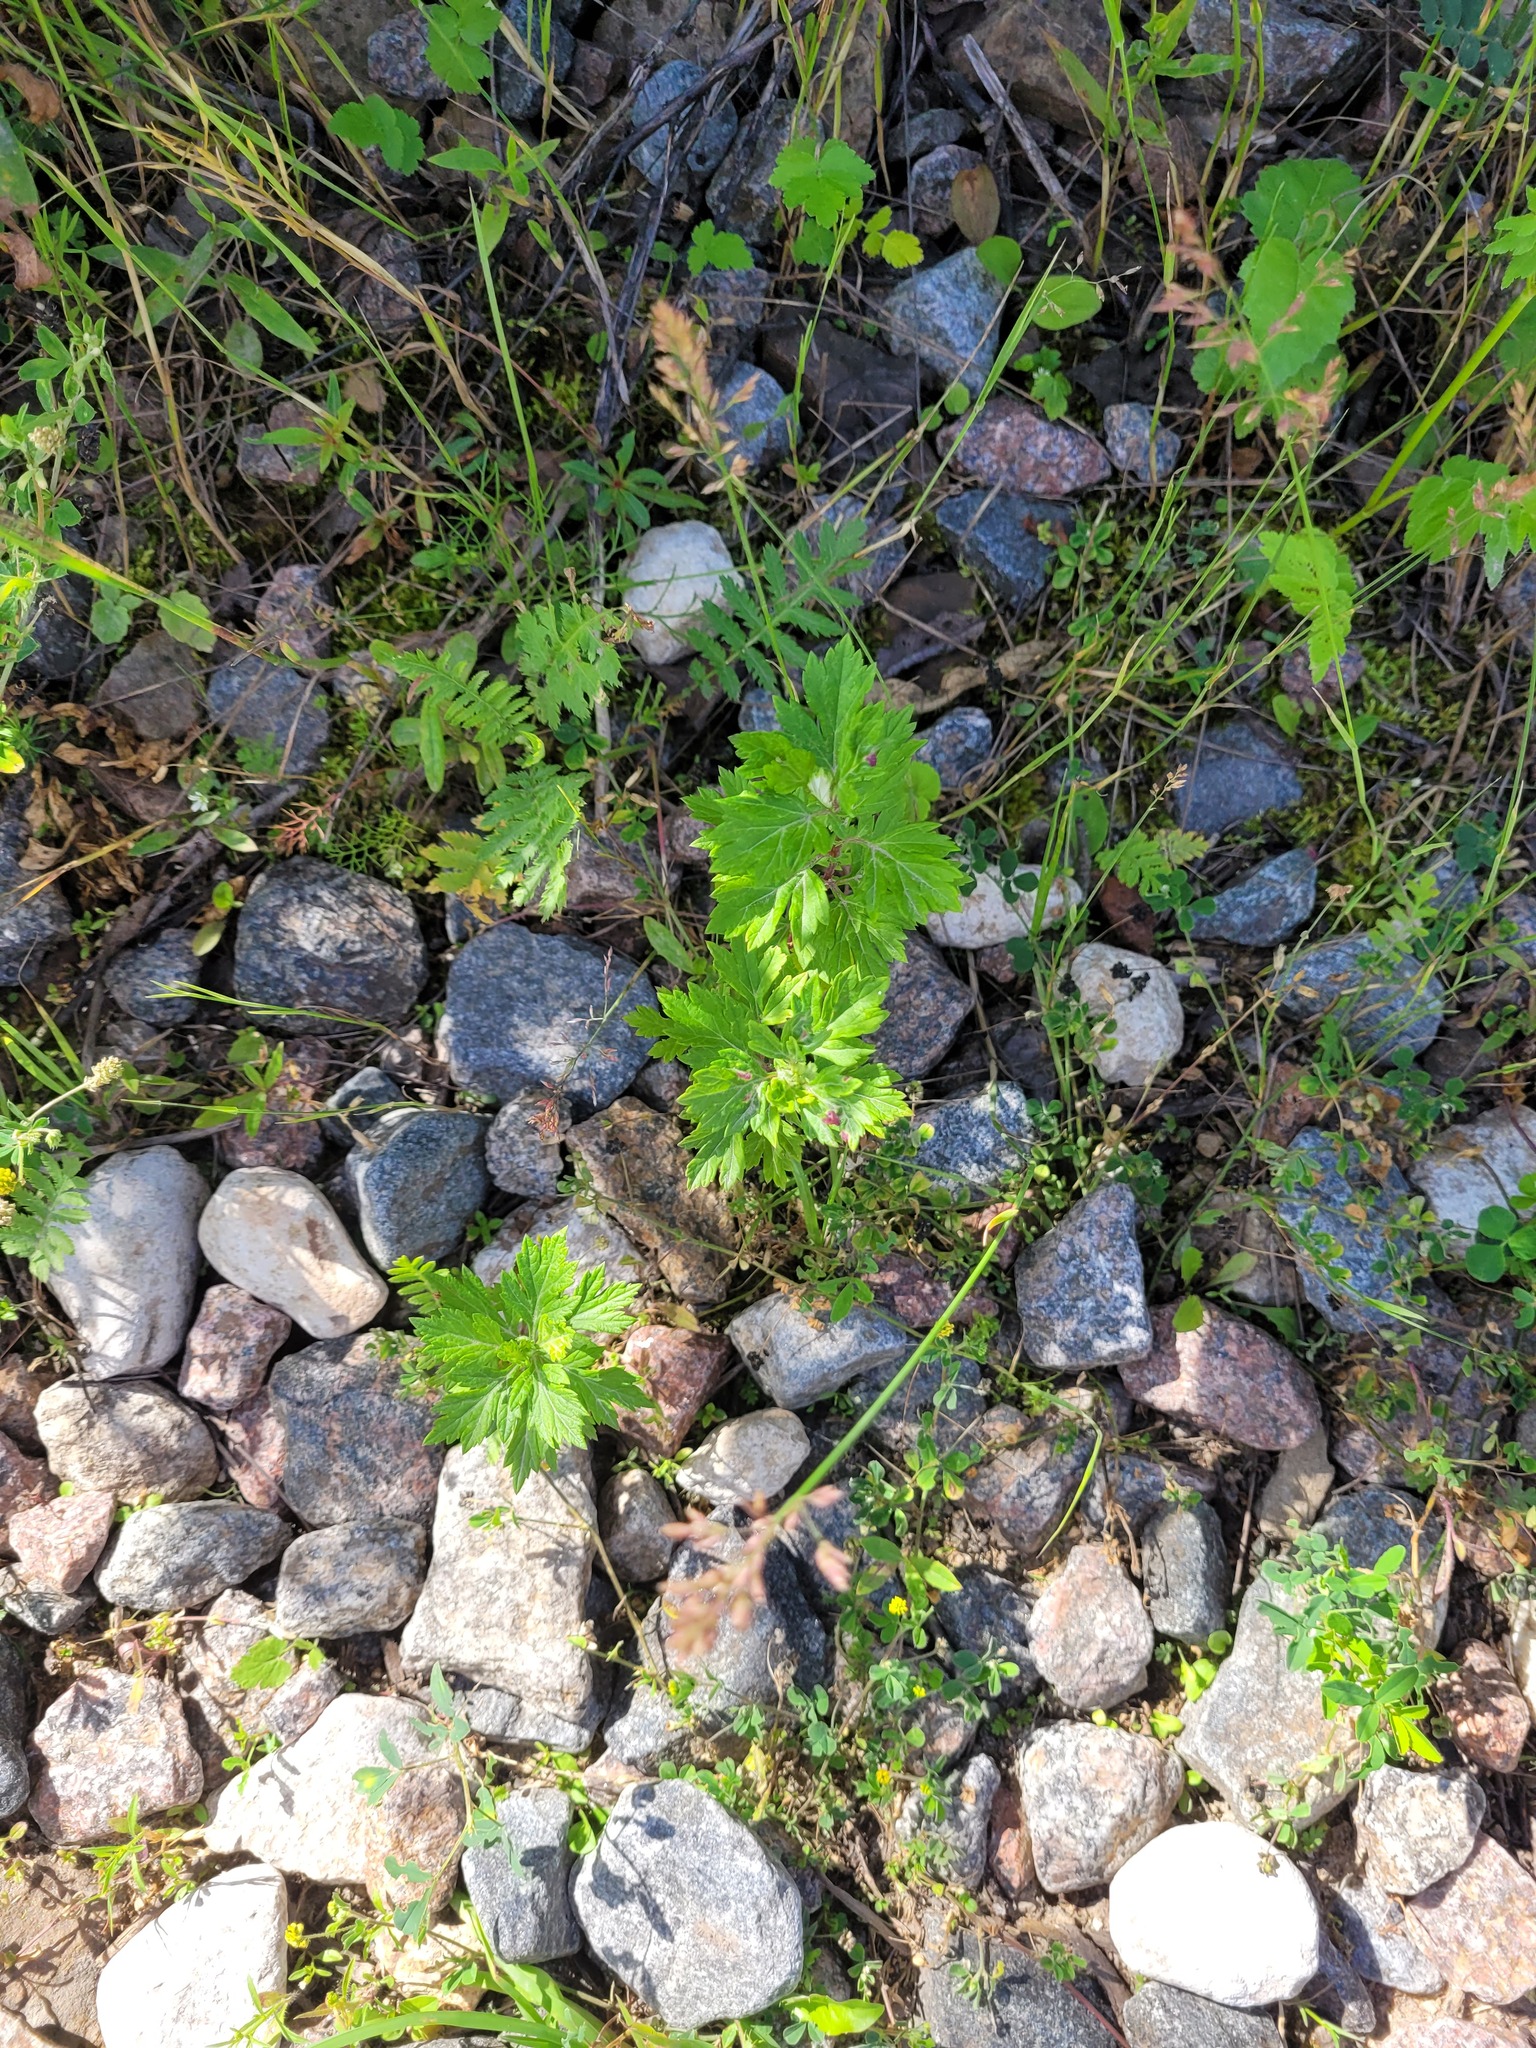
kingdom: Plantae
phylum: Tracheophyta
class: Magnoliopsida
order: Asterales
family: Asteraceae
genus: Artemisia
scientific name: Artemisia vulgaris
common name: Mugwort
